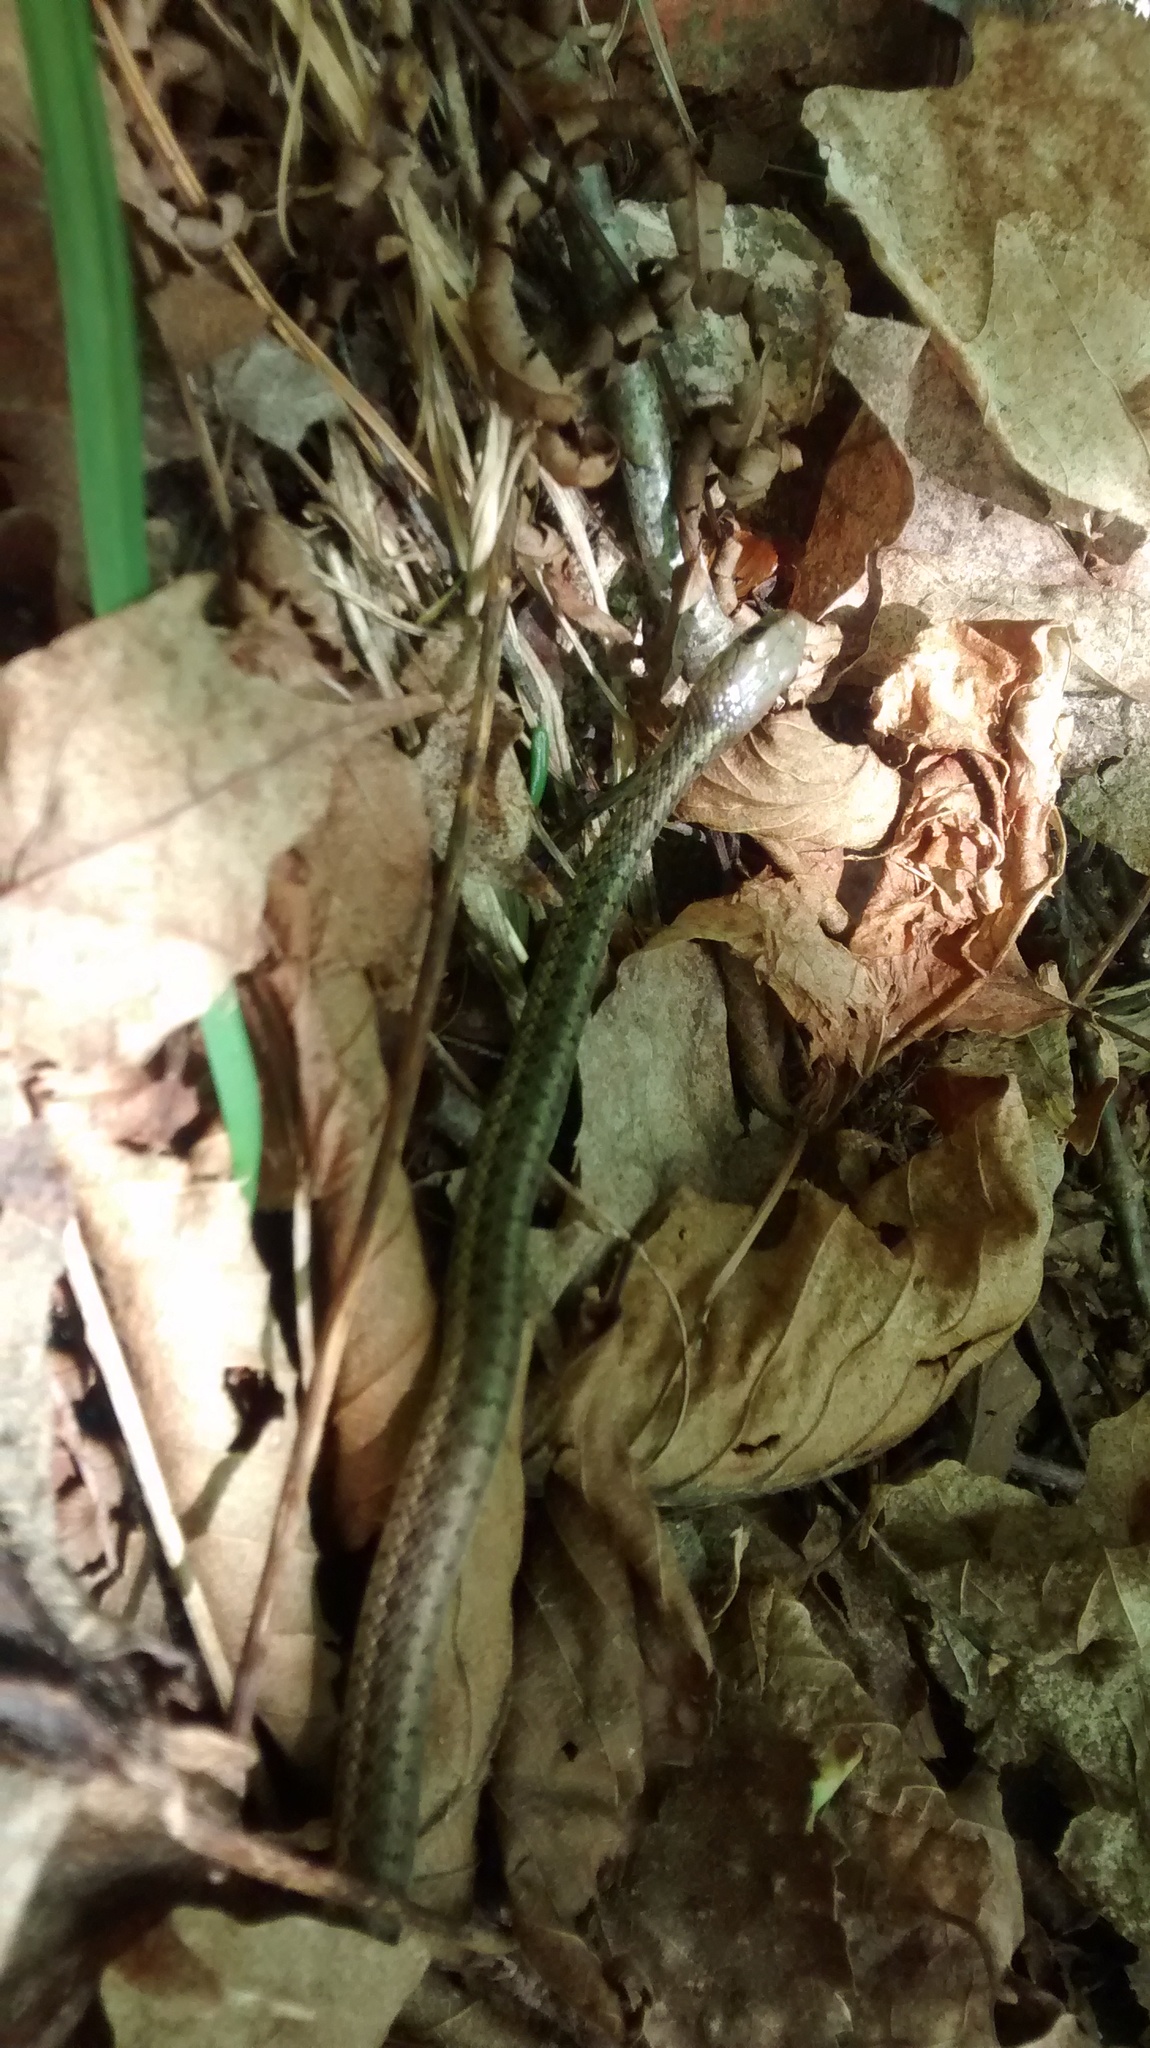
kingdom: Animalia
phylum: Chordata
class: Squamata
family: Colubridae
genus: Thamnophis
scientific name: Thamnophis sirtalis
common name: Common garter snake
